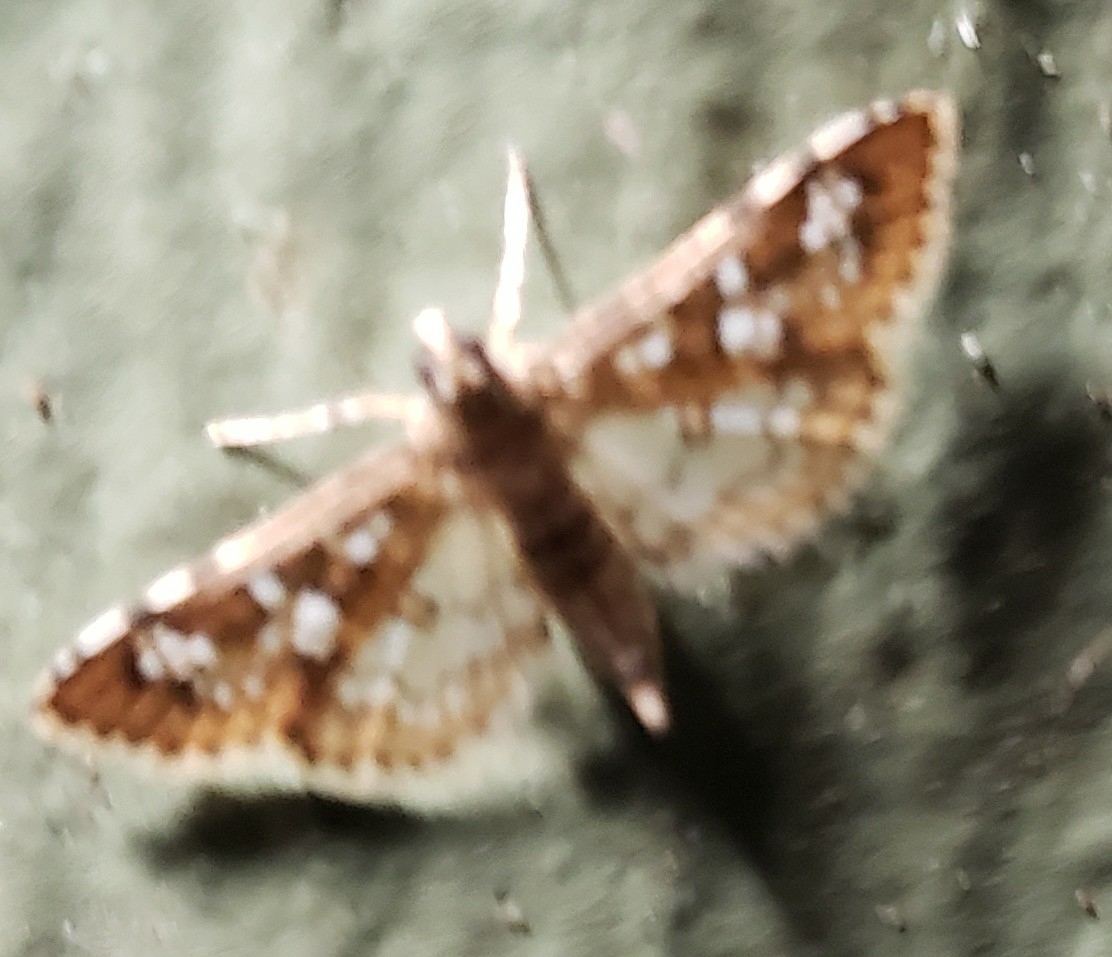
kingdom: Animalia
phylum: Arthropoda
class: Insecta
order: Lepidoptera
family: Crambidae
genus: Samea
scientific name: Samea multiplicalis
